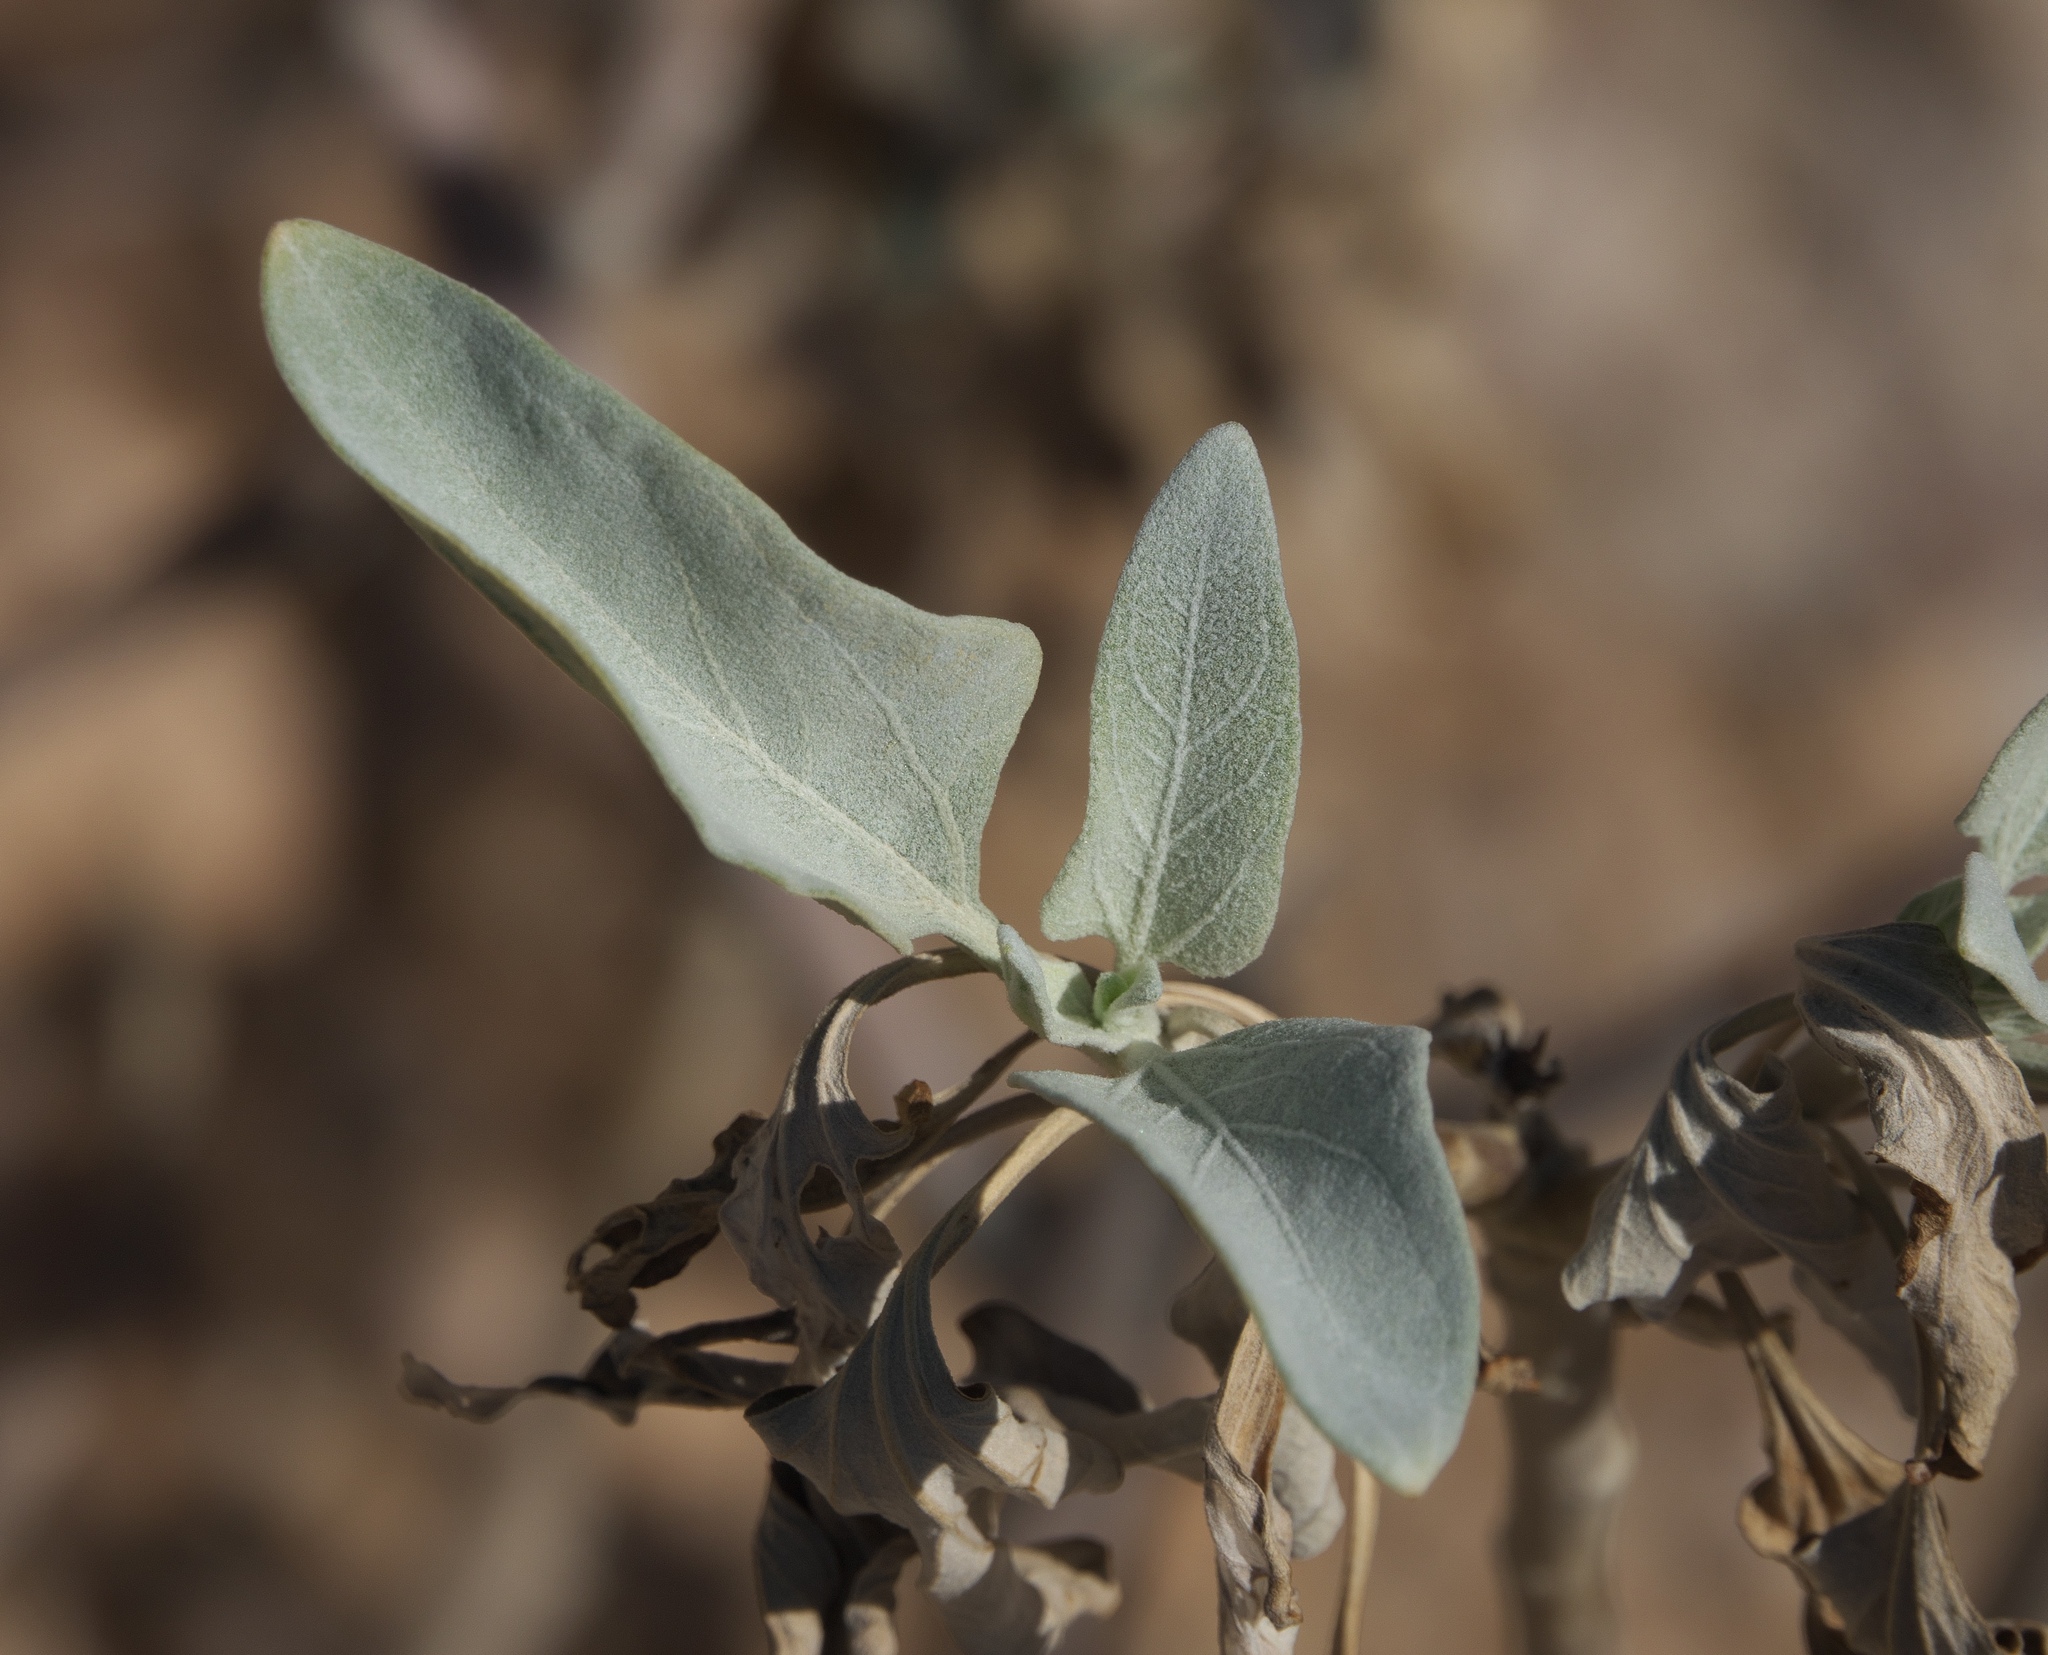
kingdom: Plantae
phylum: Tracheophyta
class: Magnoliopsida
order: Asterales
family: Asteraceae
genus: Encelia
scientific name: Encelia farinosa
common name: Brittlebush
